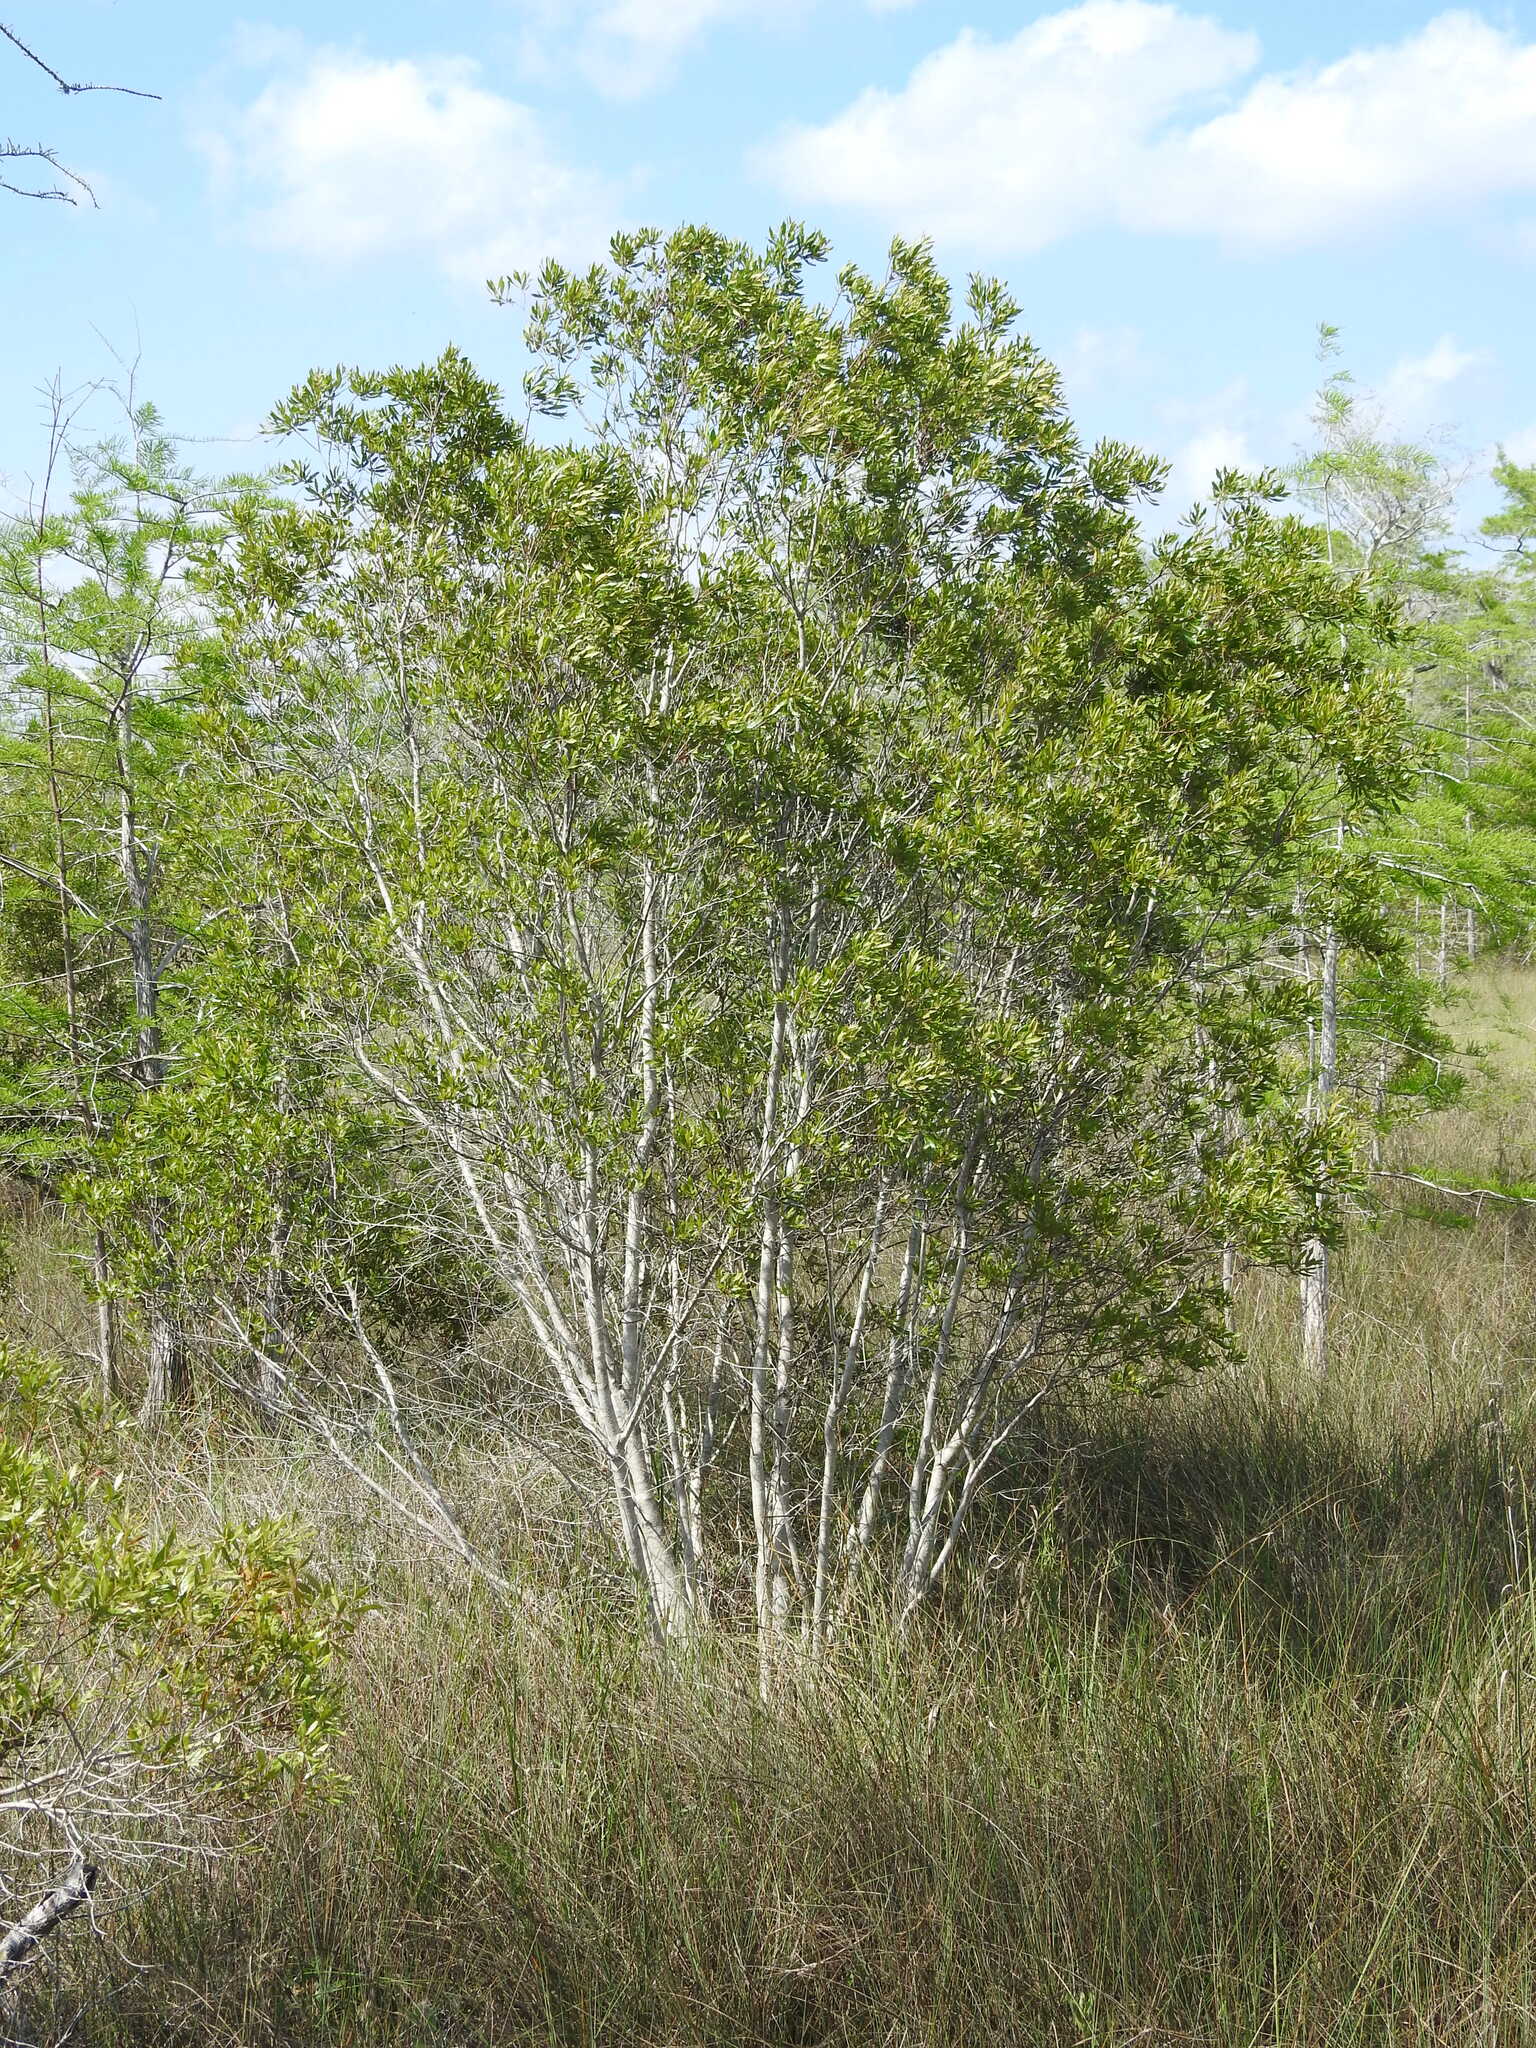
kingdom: Plantae
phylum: Tracheophyta
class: Magnoliopsida
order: Fagales
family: Myricaceae
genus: Morella
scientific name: Morella cerifera
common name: Wax myrtle
